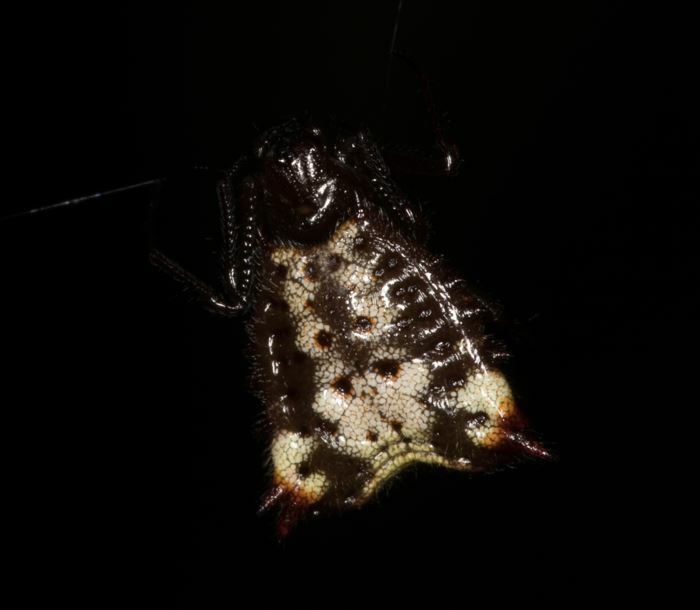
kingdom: Animalia
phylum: Arthropoda
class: Arachnida
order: Araneae
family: Araneidae
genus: Micrathena
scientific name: Micrathena triangularis
